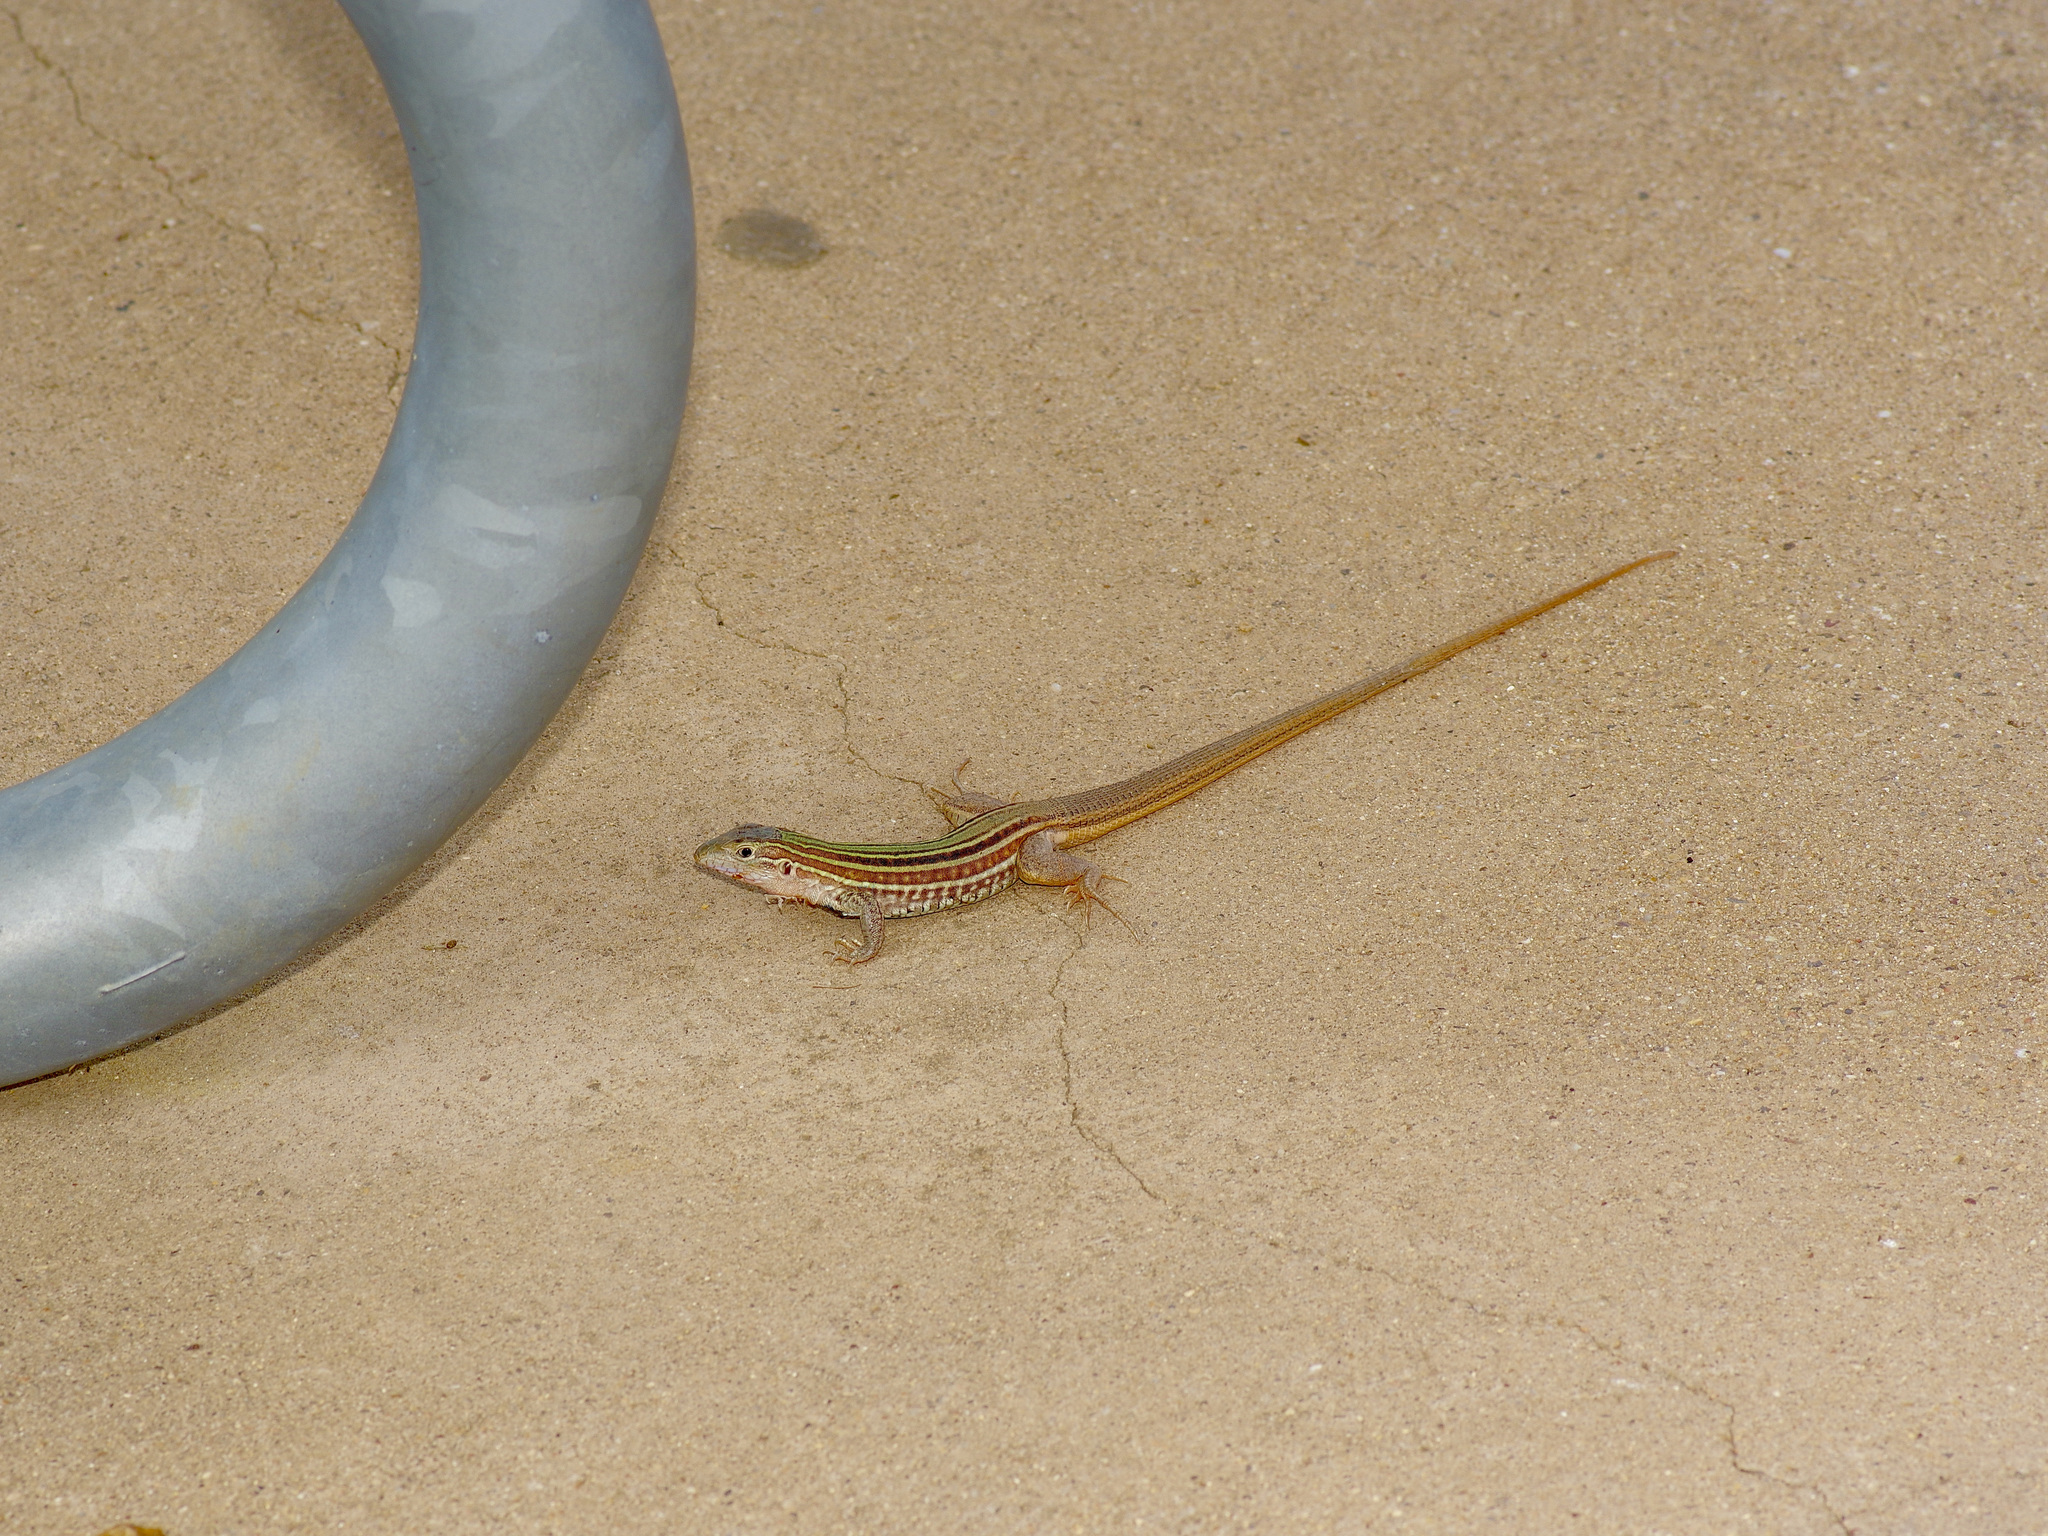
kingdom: Animalia
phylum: Chordata
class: Squamata
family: Teiidae
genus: Aspidoscelis
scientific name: Aspidoscelis gularis
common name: Eastern spotted whiptail
